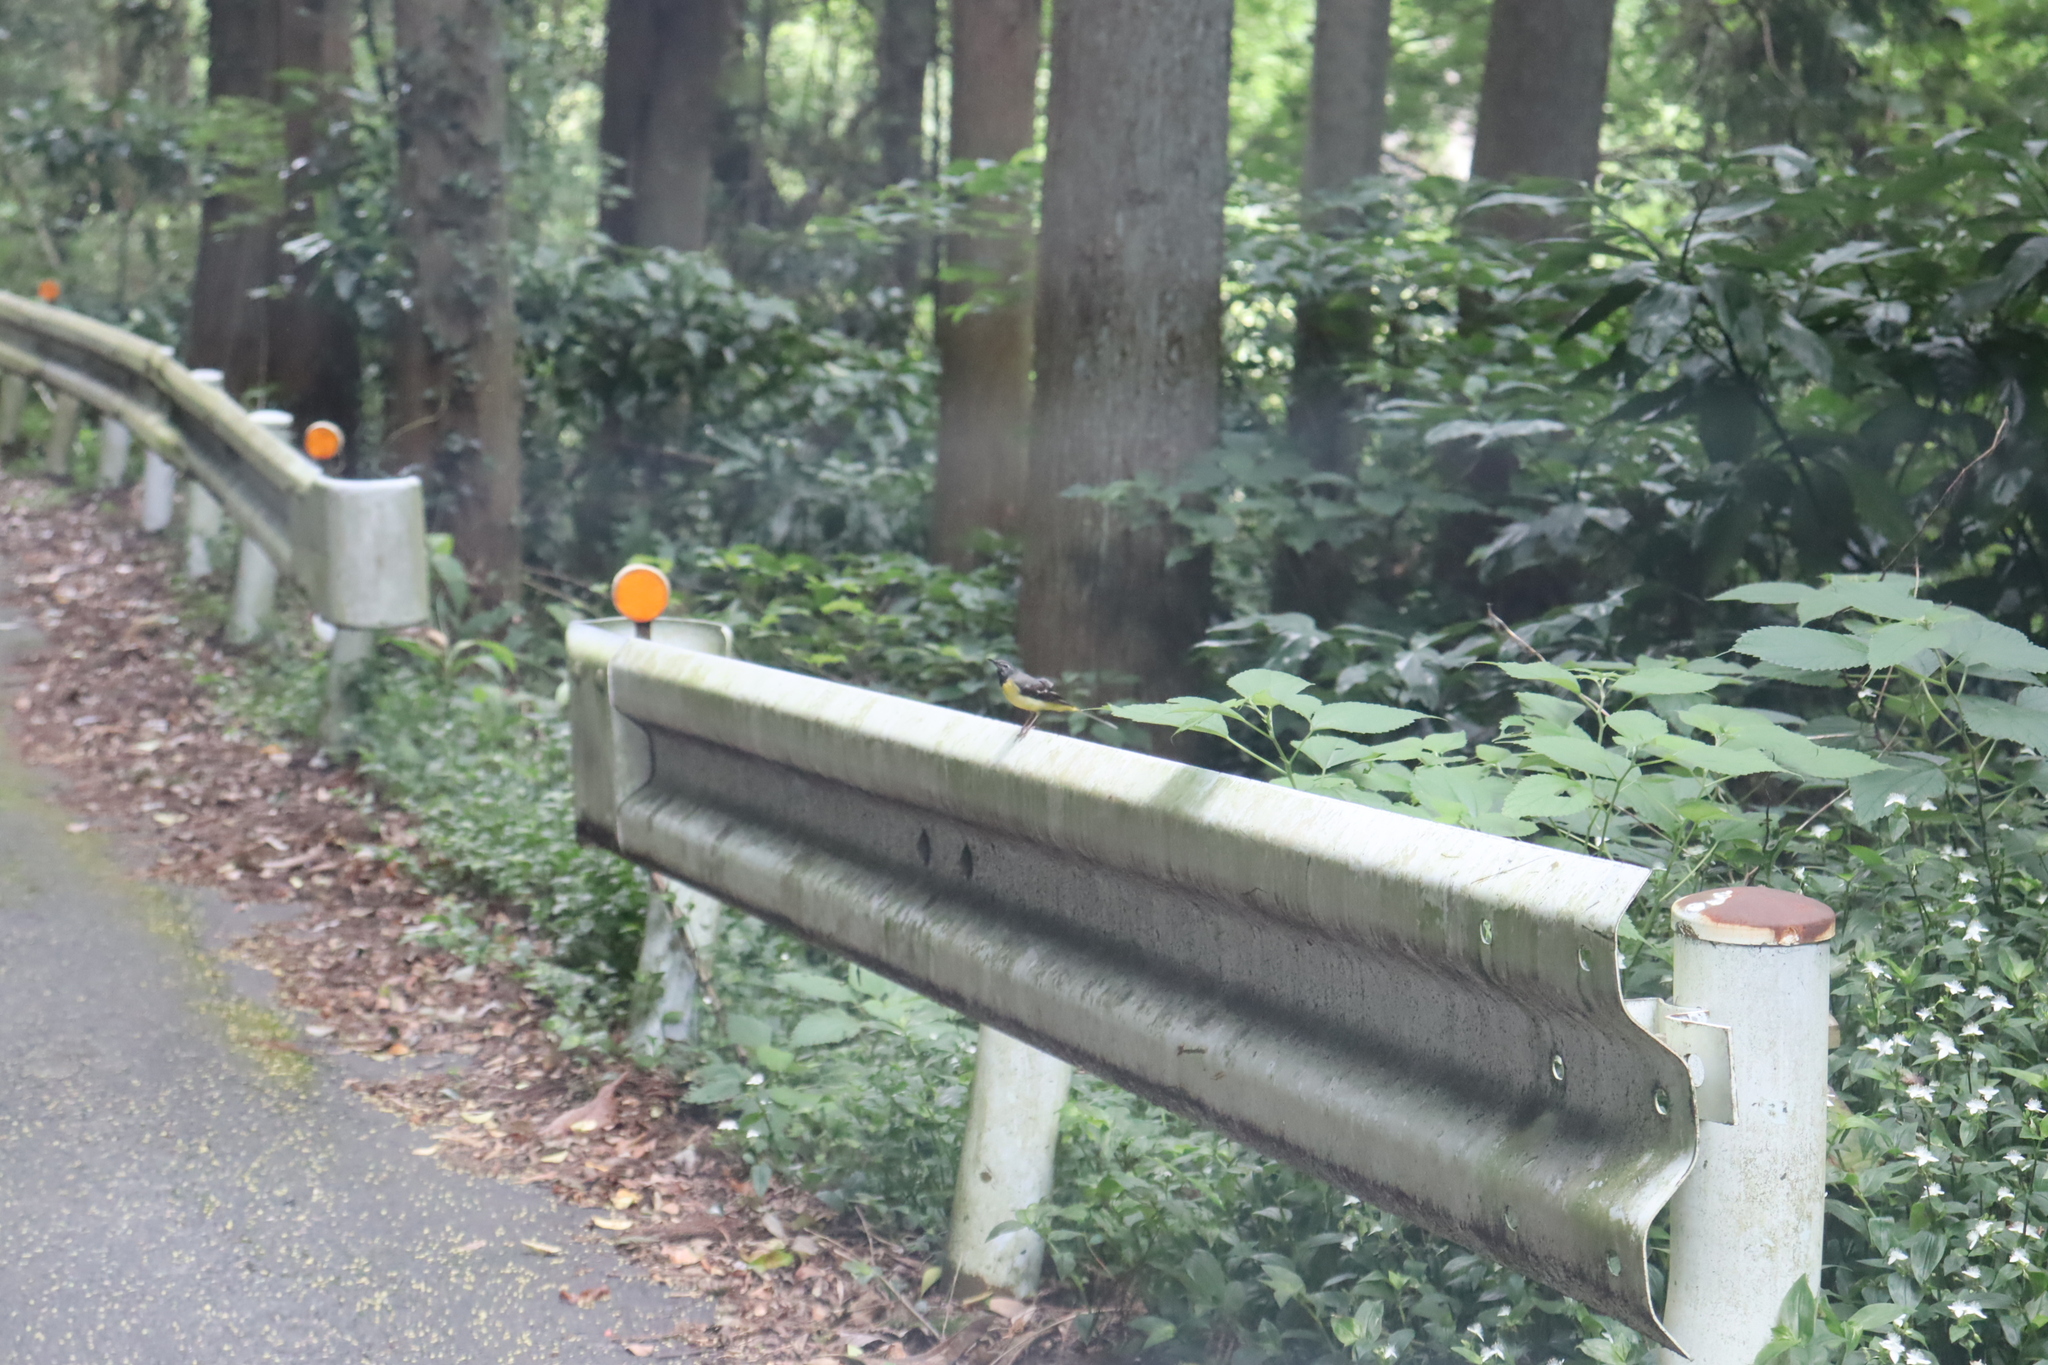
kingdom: Animalia
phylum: Chordata
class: Aves
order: Passeriformes
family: Motacillidae
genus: Motacilla
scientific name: Motacilla cinerea
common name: Grey wagtail
